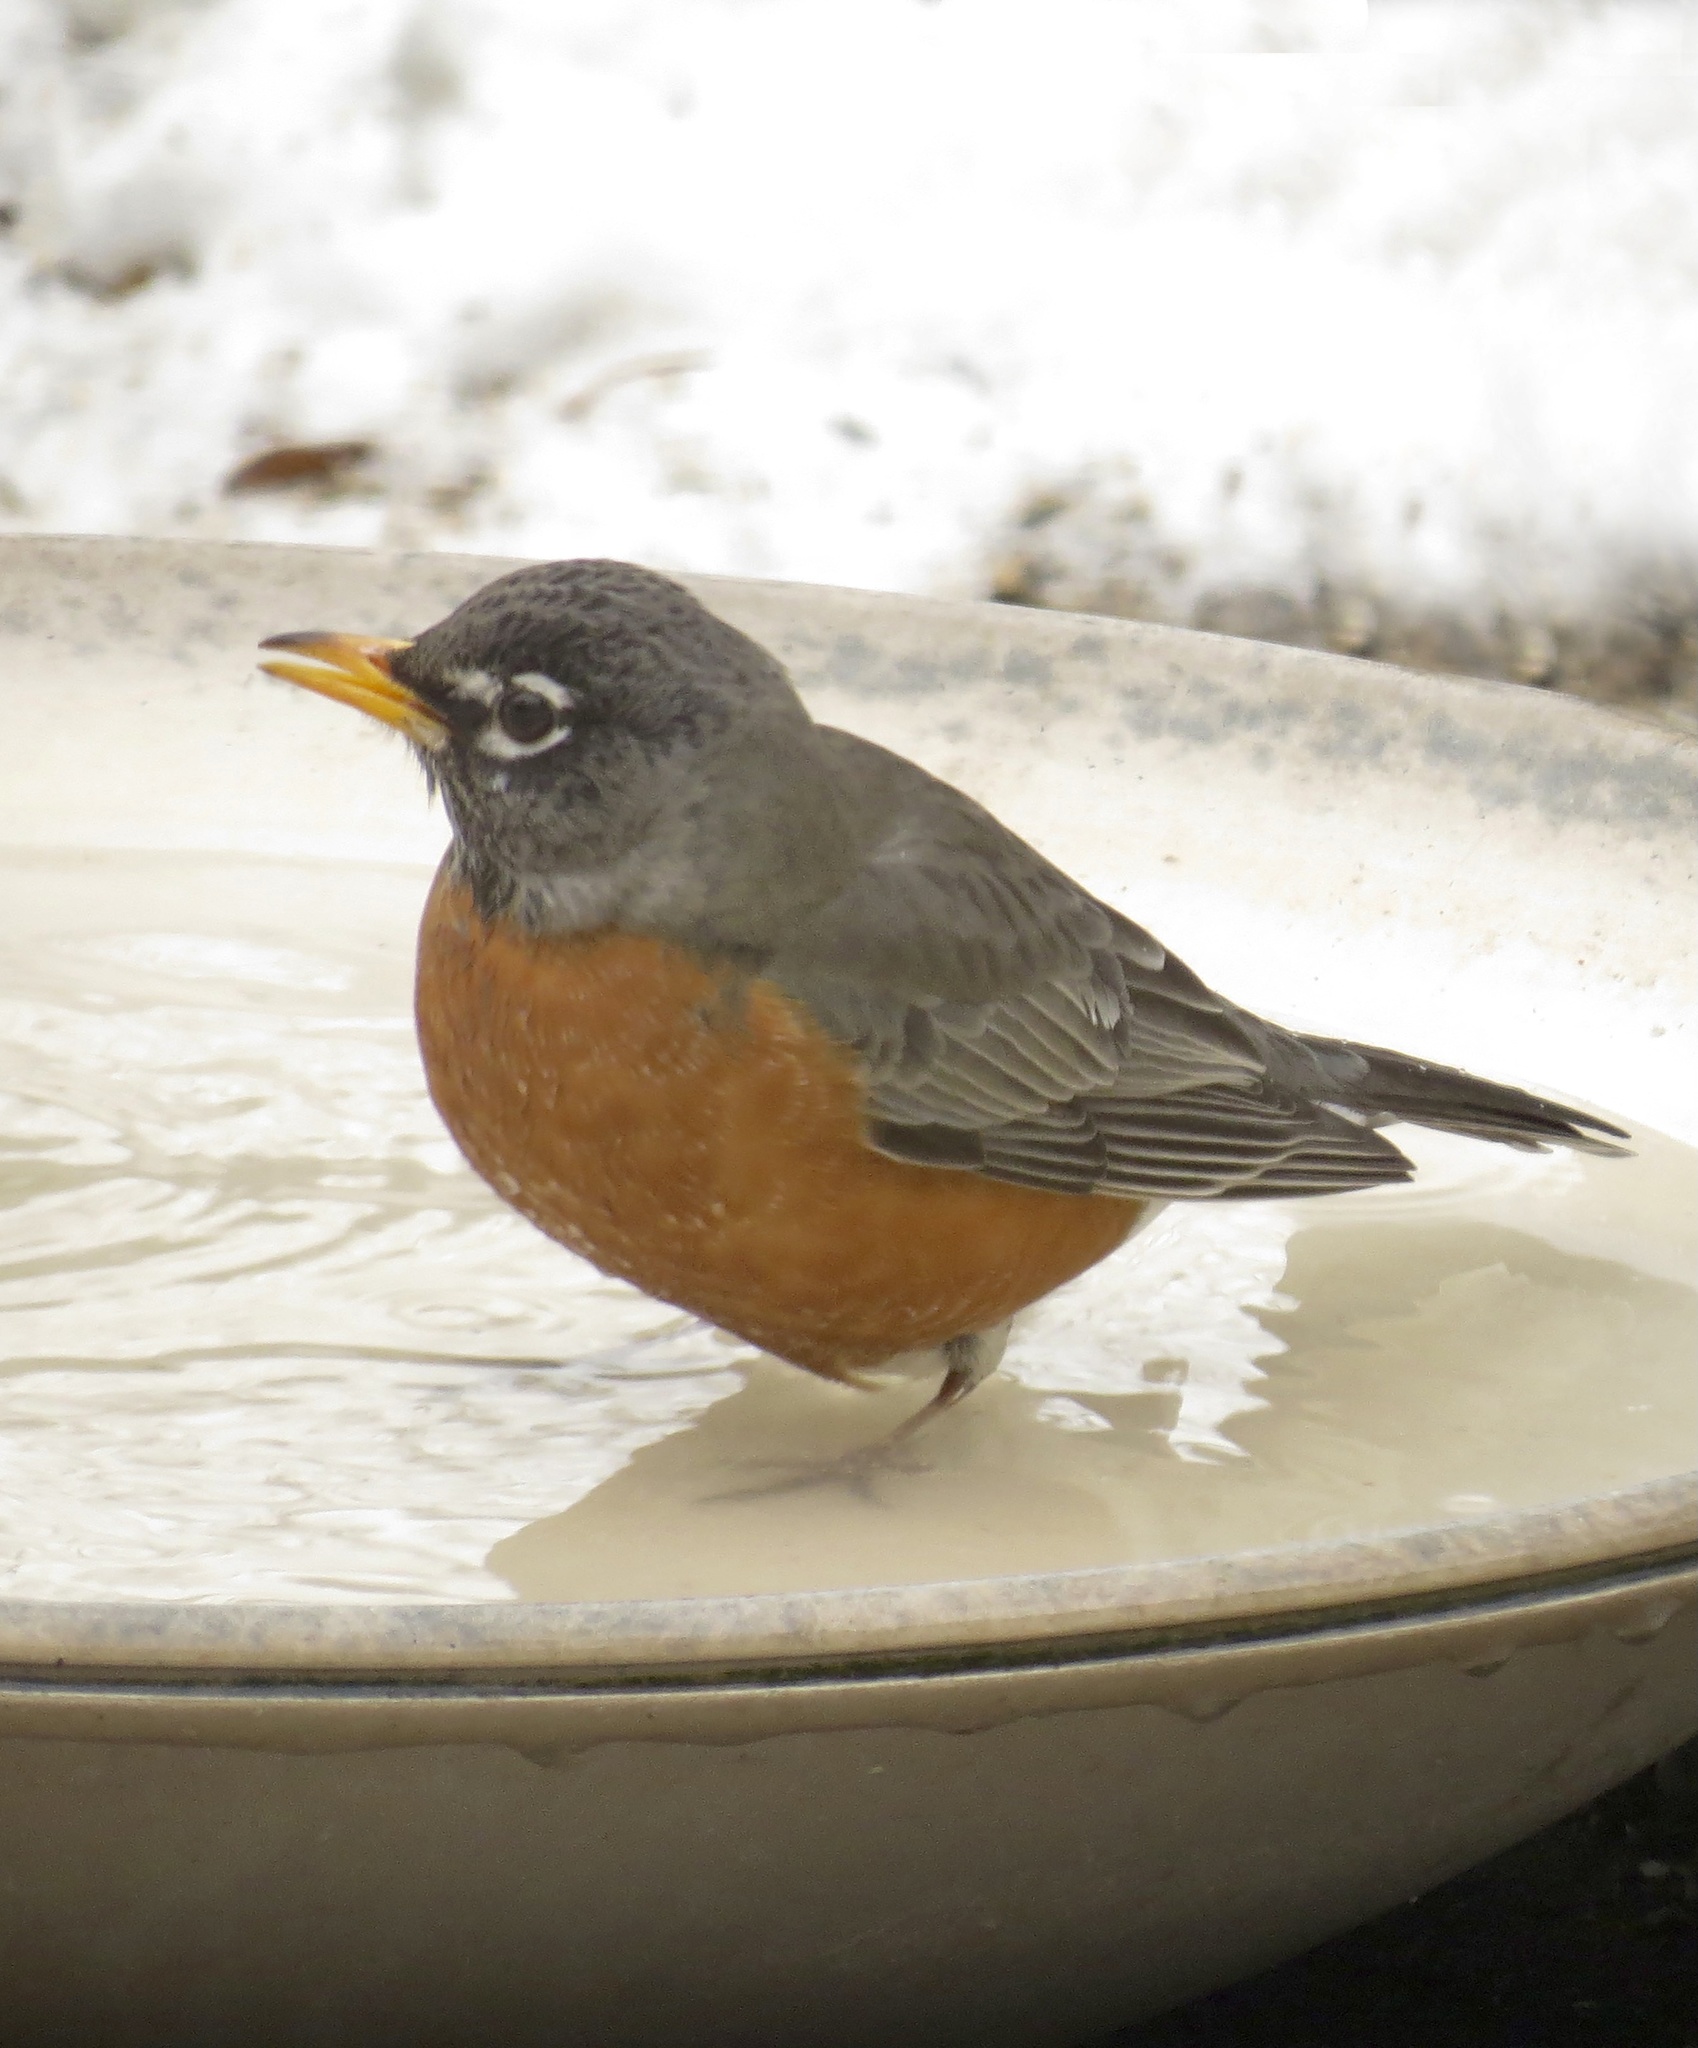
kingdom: Animalia
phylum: Chordata
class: Aves
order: Passeriformes
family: Turdidae
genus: Turdus
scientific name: Turdus migratorius
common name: American robin
